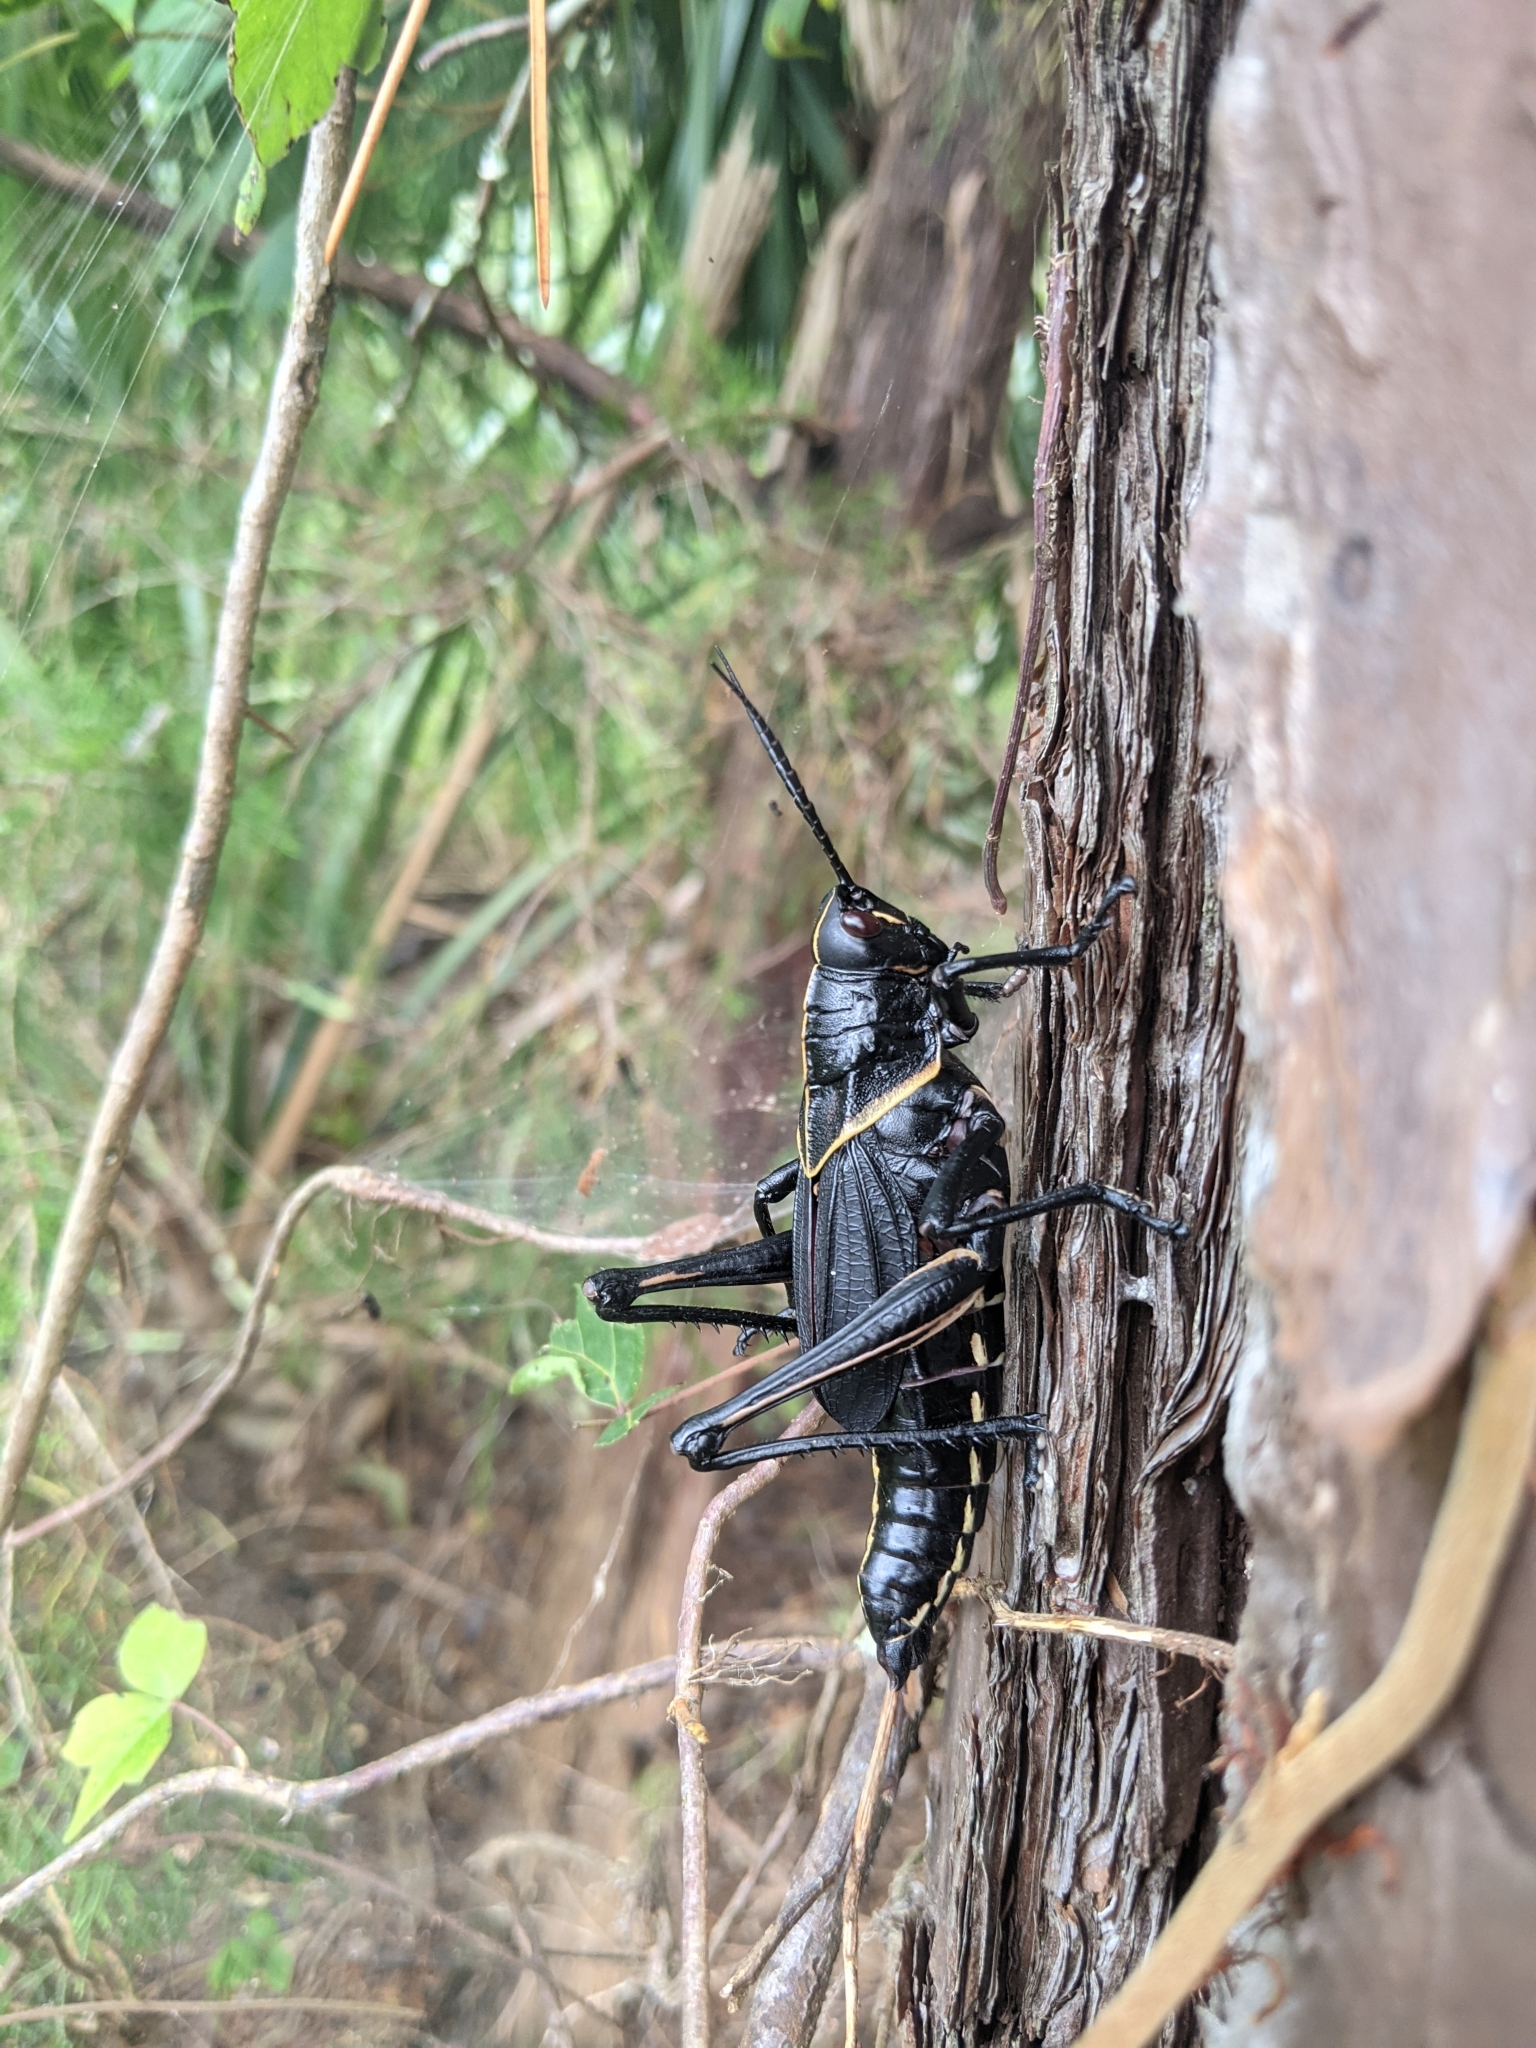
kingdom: Animalia
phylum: Arthropoda
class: Insecta
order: Orthoptera
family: Romaleidae
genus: Romalea
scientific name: Romalea microptera
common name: Eastern lubber grasshopper
